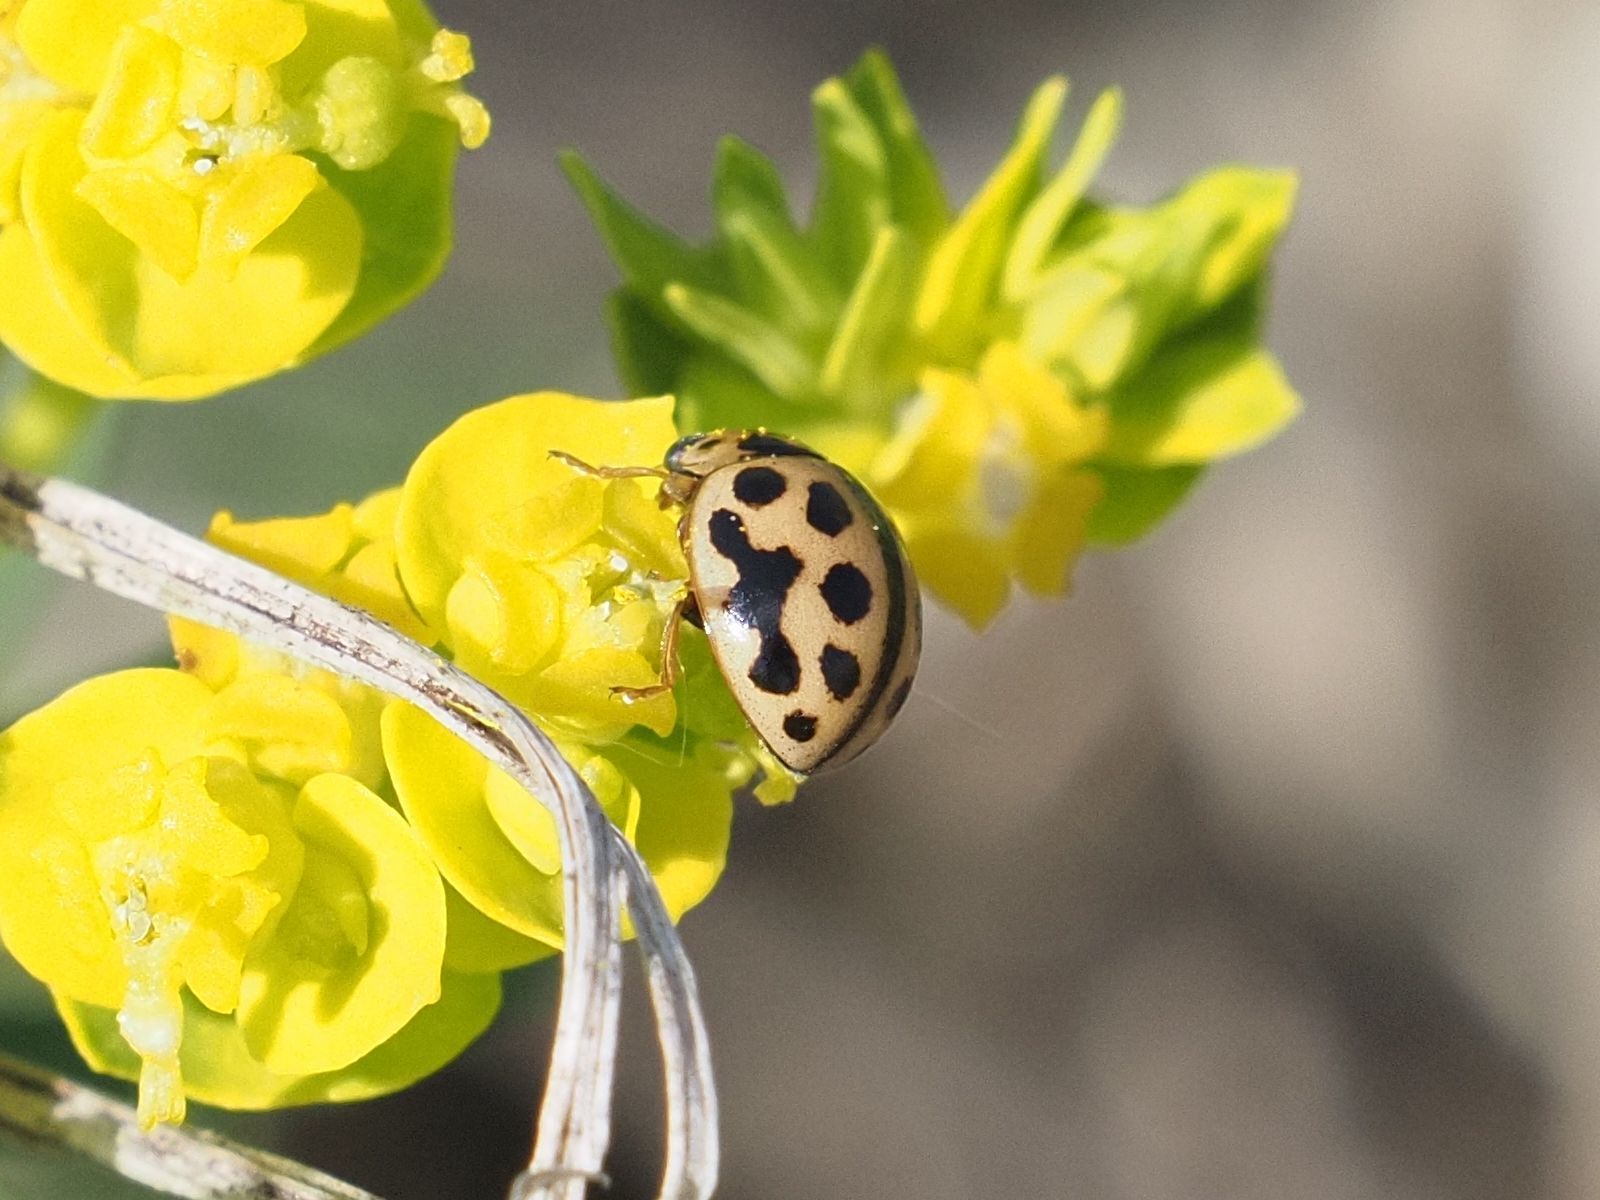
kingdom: Animalia
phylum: Arthropoda
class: Insecta
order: Coleoptera
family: Coccinellidae
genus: Tytthaspis
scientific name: Tytthaspis sedecimpunctata
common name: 16-spot ladybird
